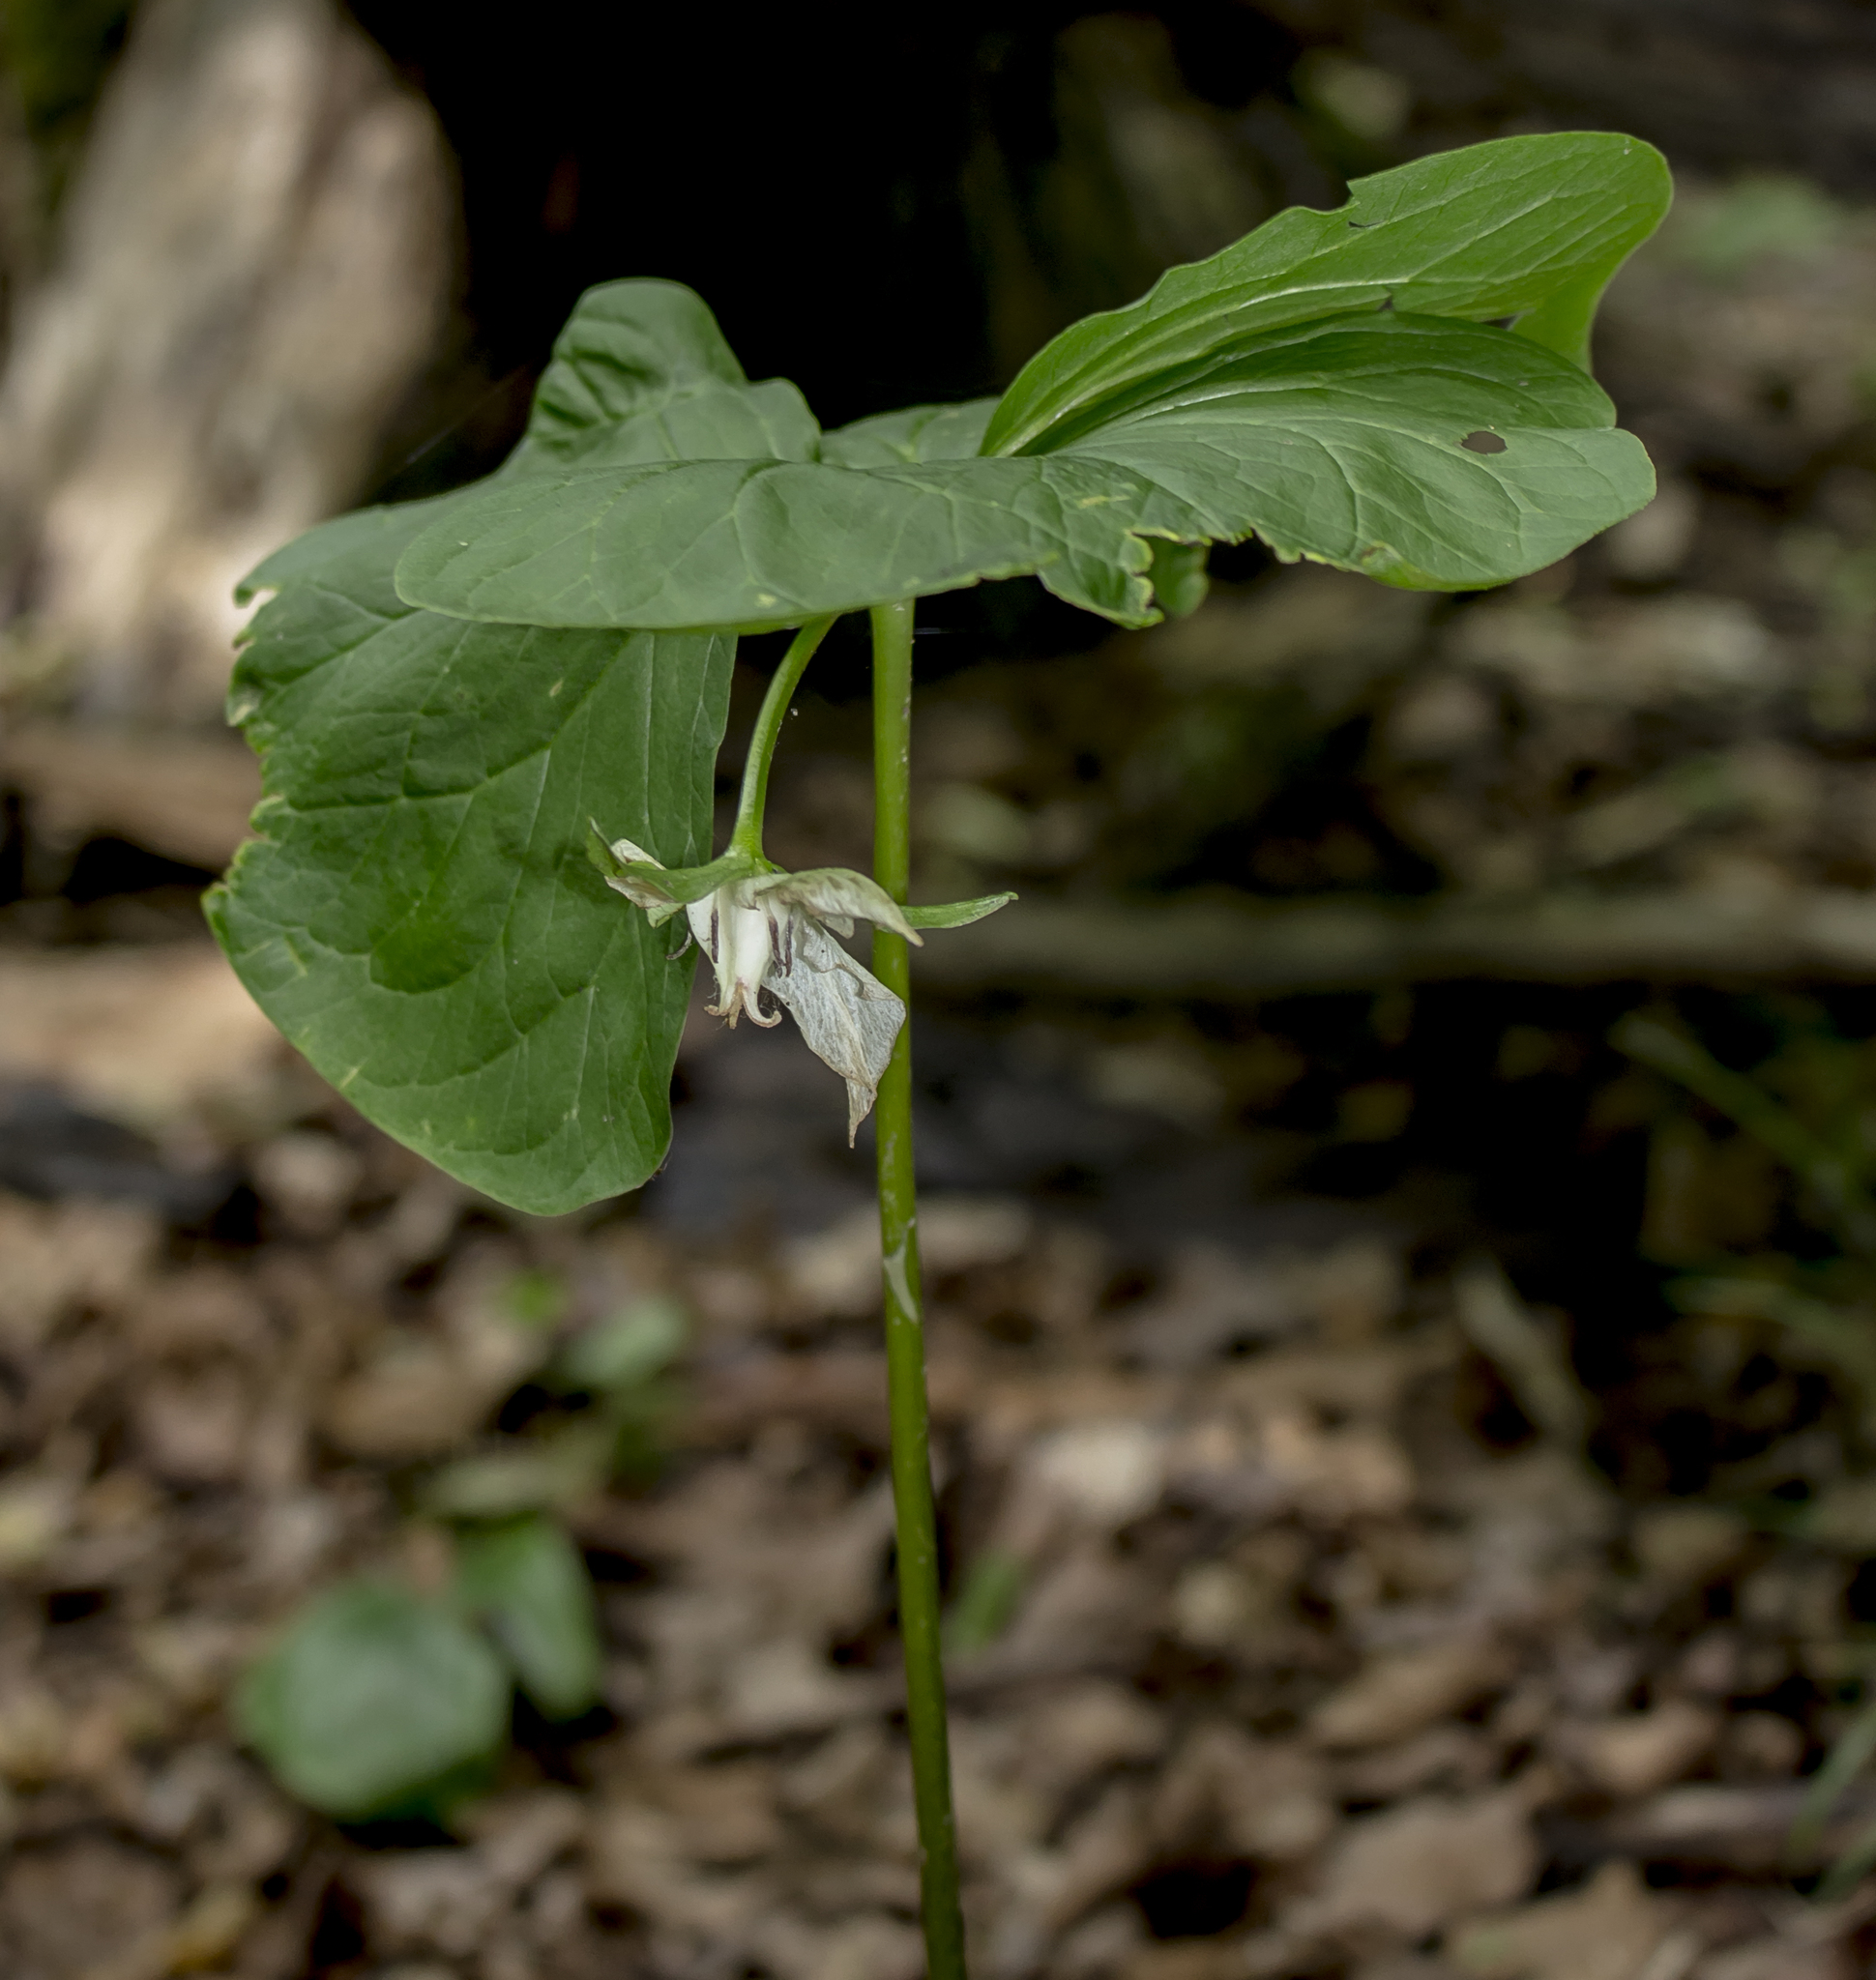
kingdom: Plantae
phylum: Tracheophyta
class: Liliopsida
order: Liliales
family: Melanthiaceae
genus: Trillium
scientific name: Trillium cernuum
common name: Nodding trillium
